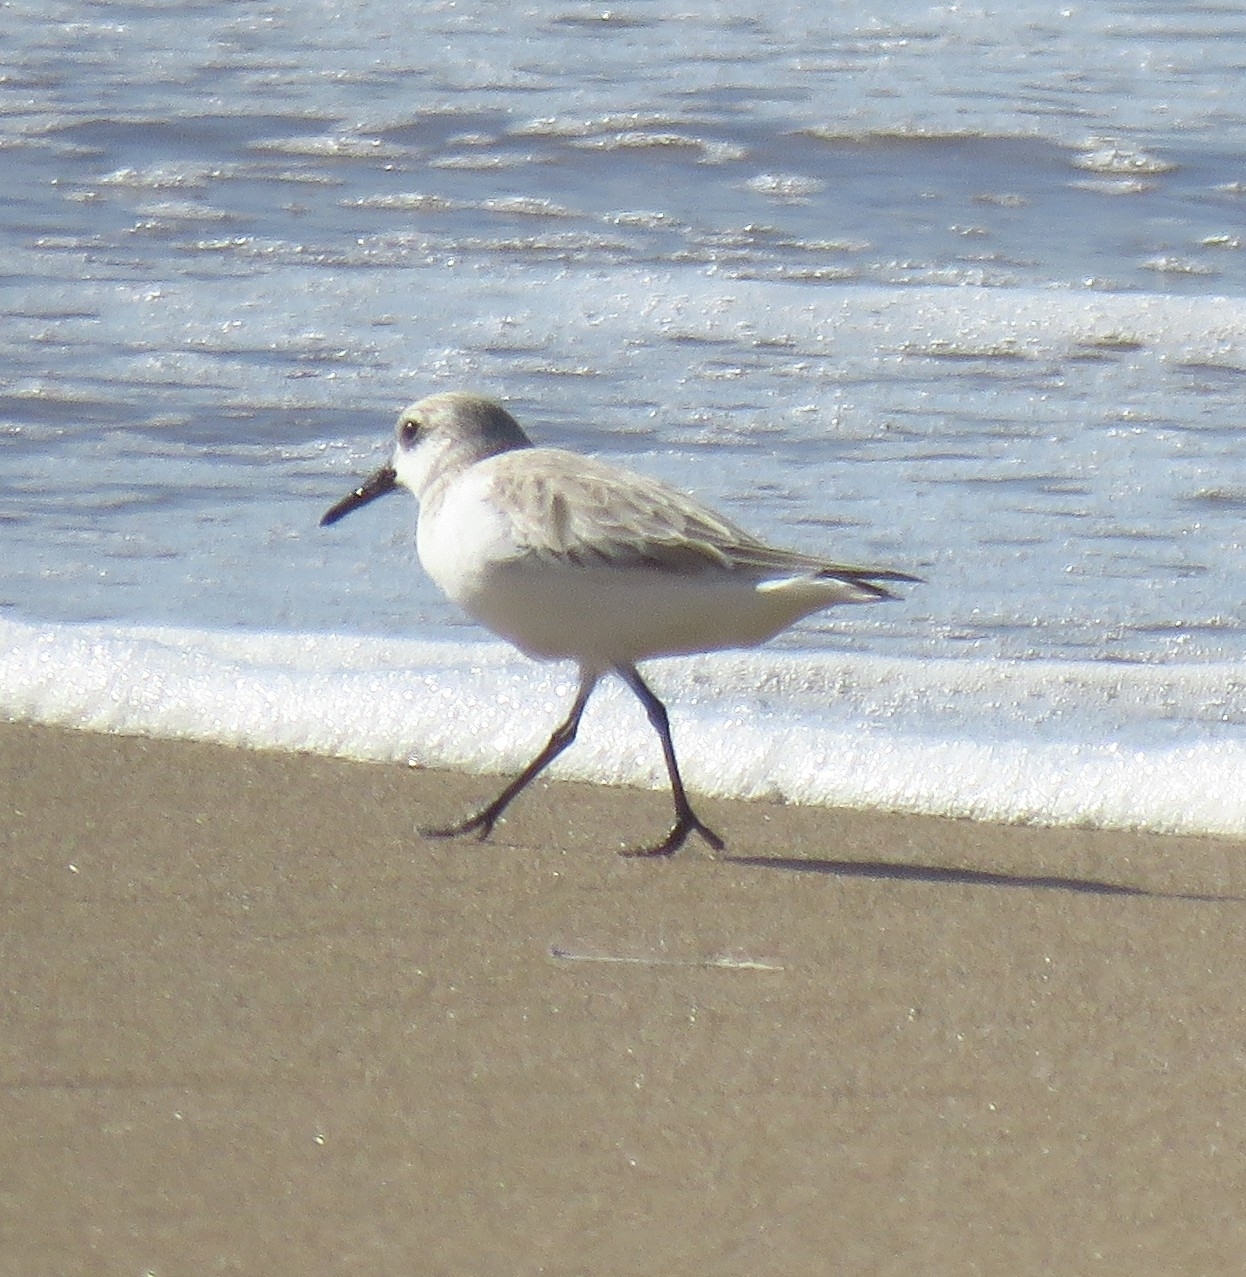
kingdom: Animalia
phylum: Chordata
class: Aves
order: Charadriiformes
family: Scolopacidae
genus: Calidris
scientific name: Calidris alba
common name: Sanderling
